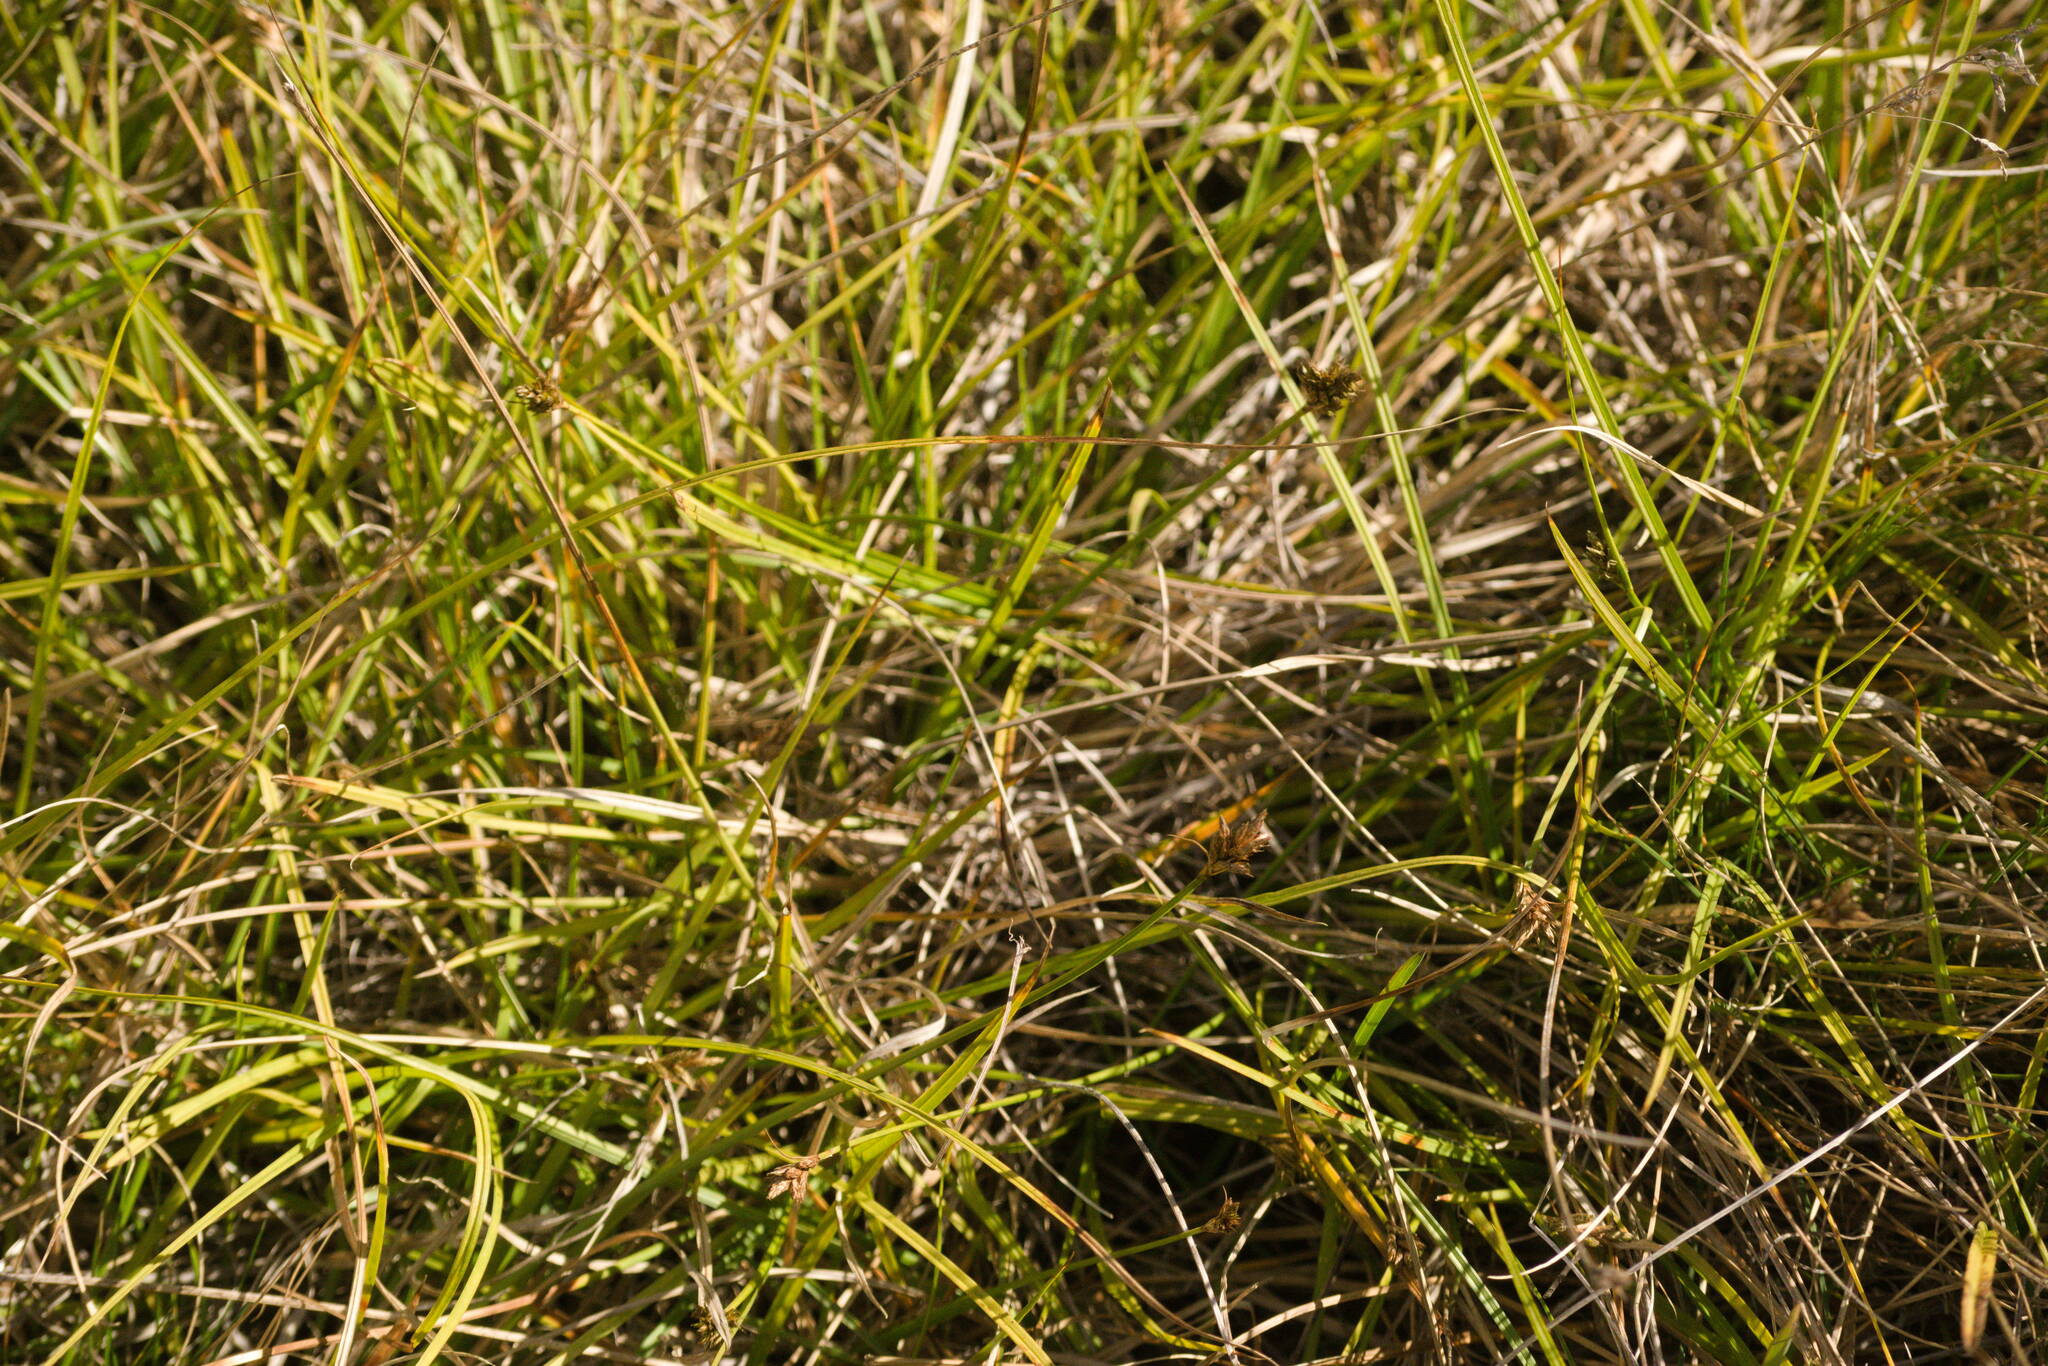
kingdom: Plantae
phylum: Tracheophyta
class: Liliopsida
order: Poales
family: Cyperaceae
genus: Carex
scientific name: Carex subfusca
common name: Brown sedge
